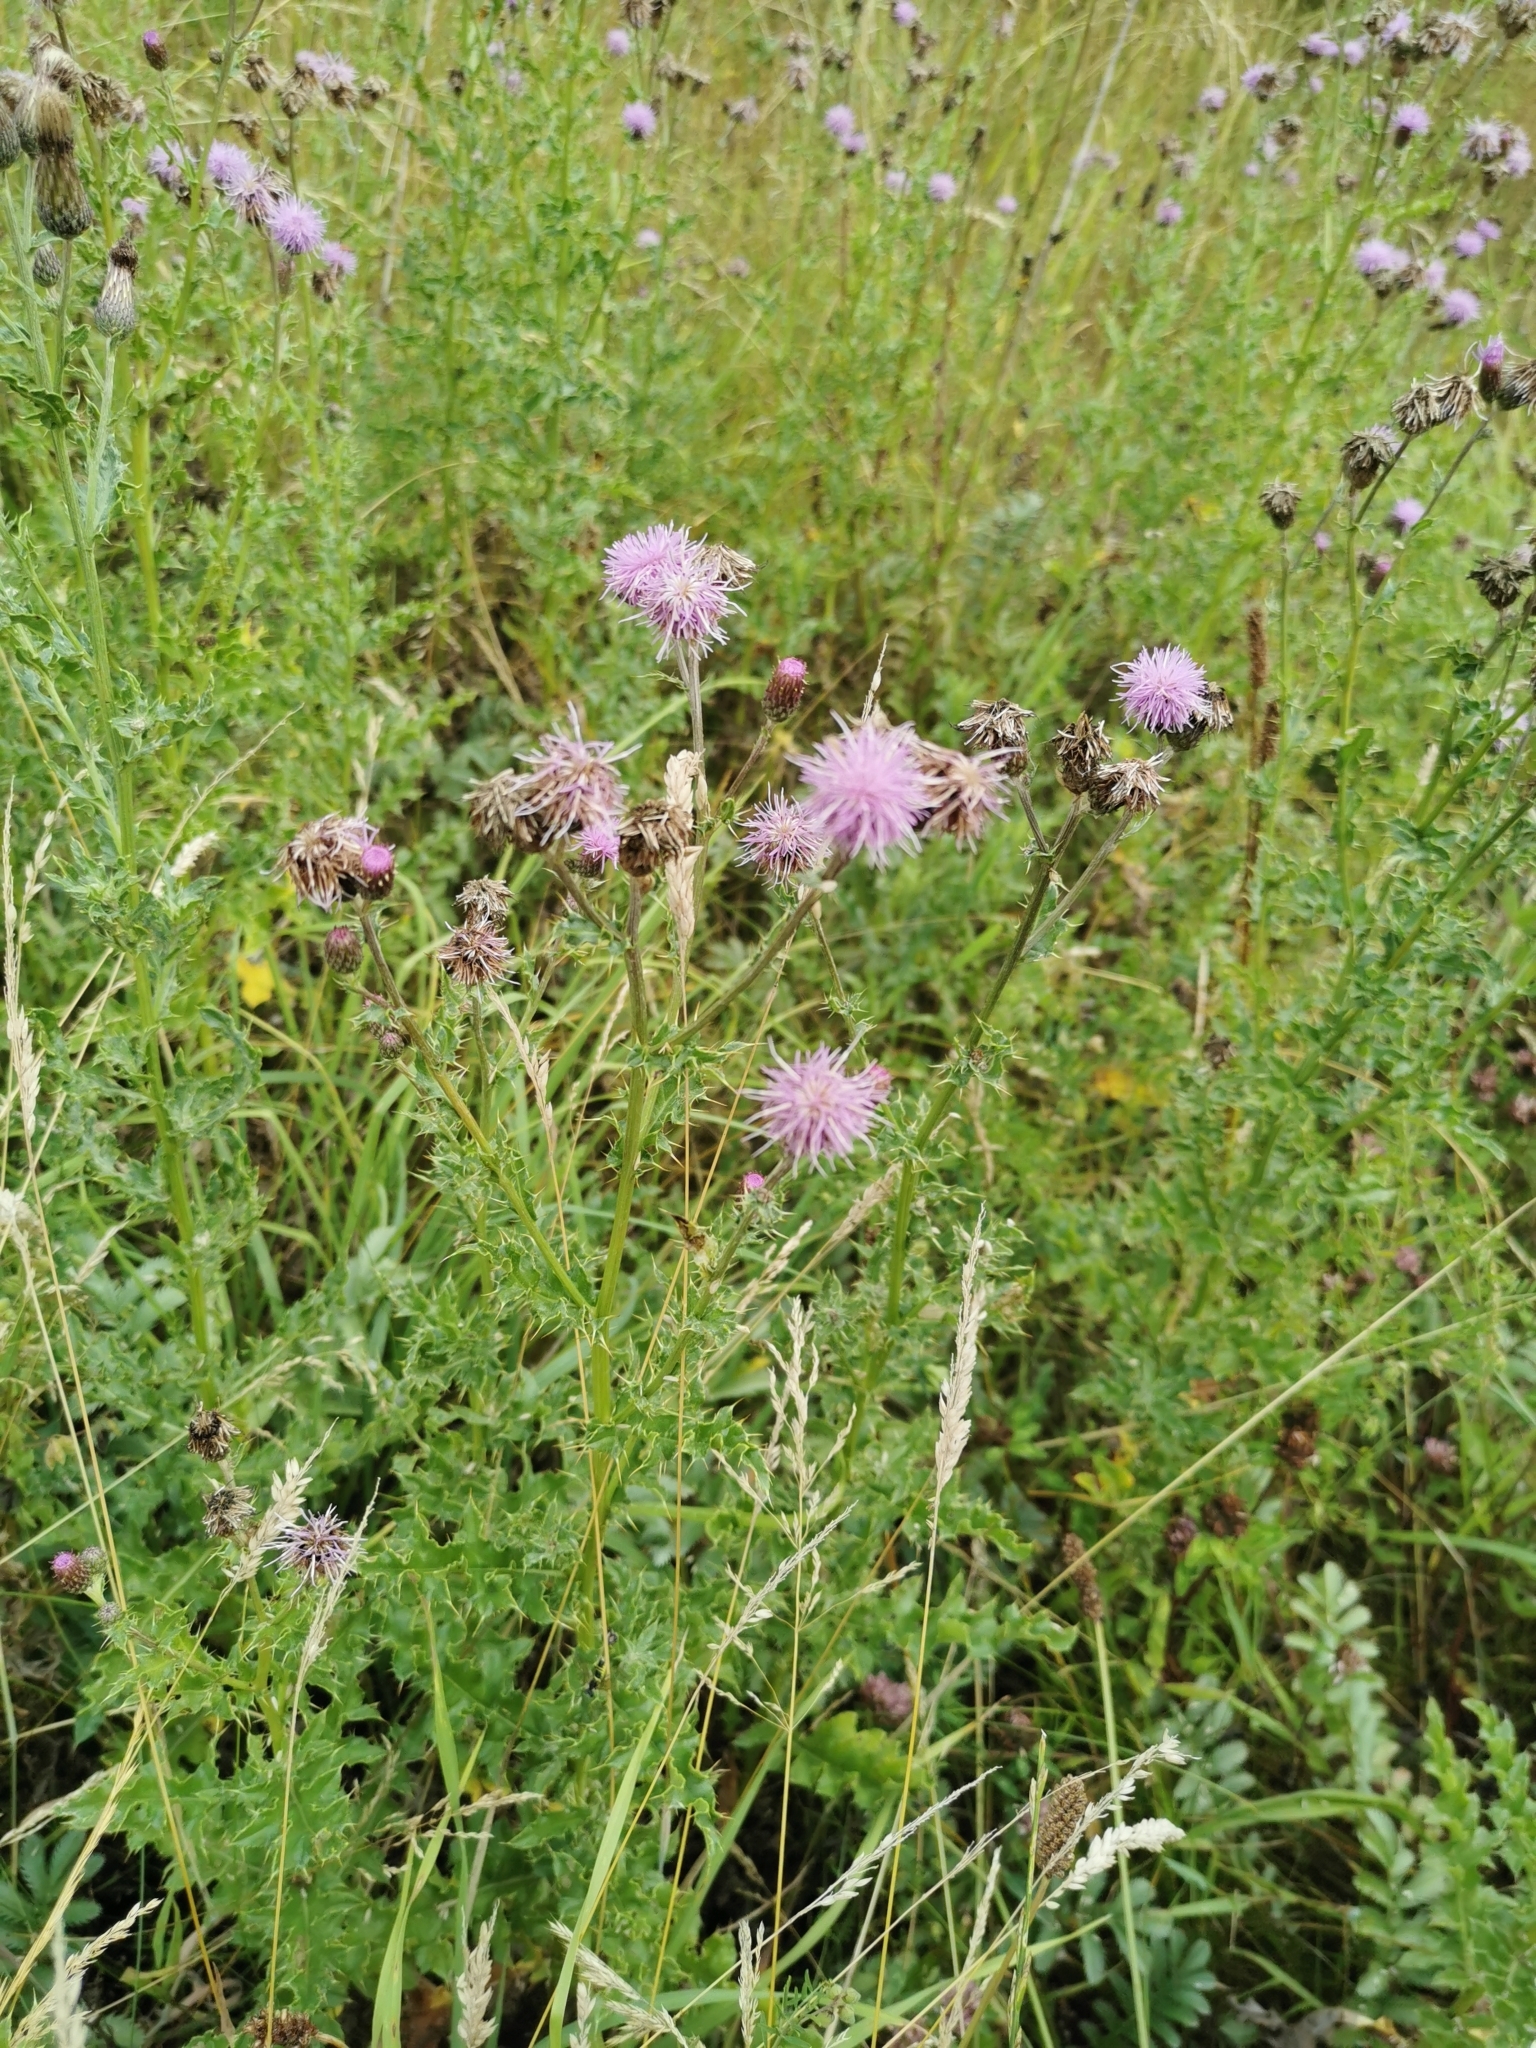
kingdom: Plantae
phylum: Tracheophyta
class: Magnoliopsida
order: Asterales
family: Asteraceae
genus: Cirsium
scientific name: Cirsium arvense
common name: Creeping thistle
